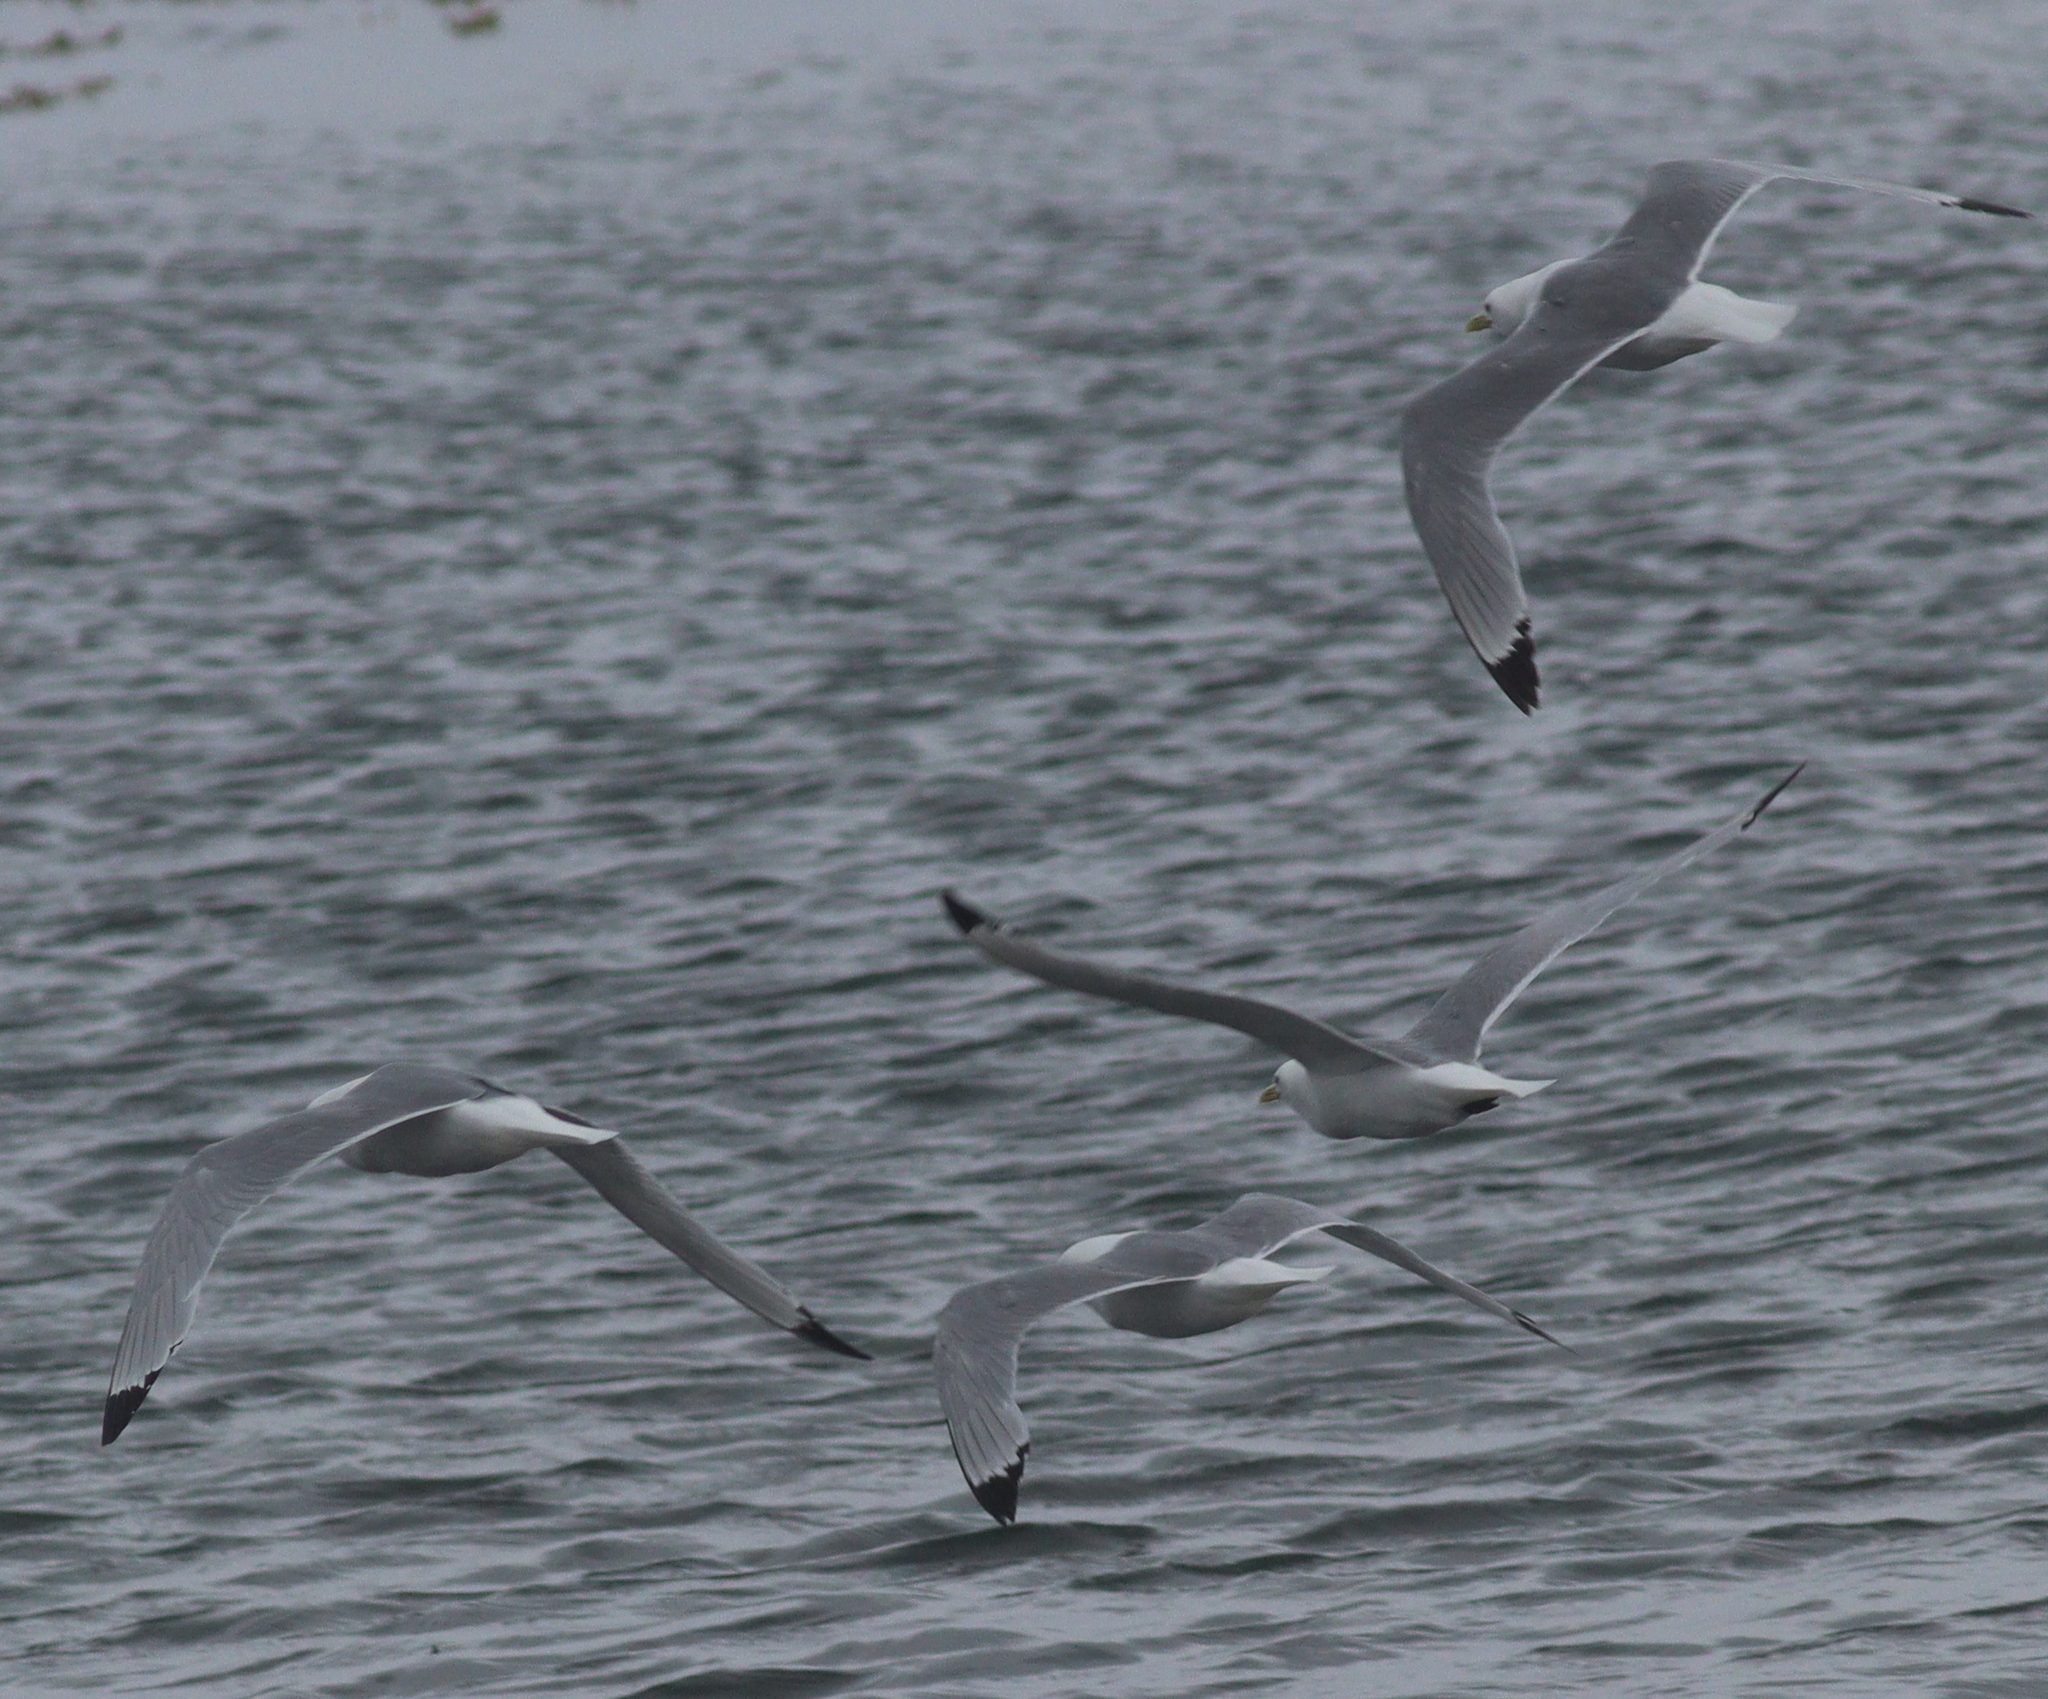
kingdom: Animalia
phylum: Chordata
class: Aves
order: Charadriiformes
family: Laridae
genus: Rissa
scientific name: Rissa tridactyla
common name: Black-legged kittiwake
